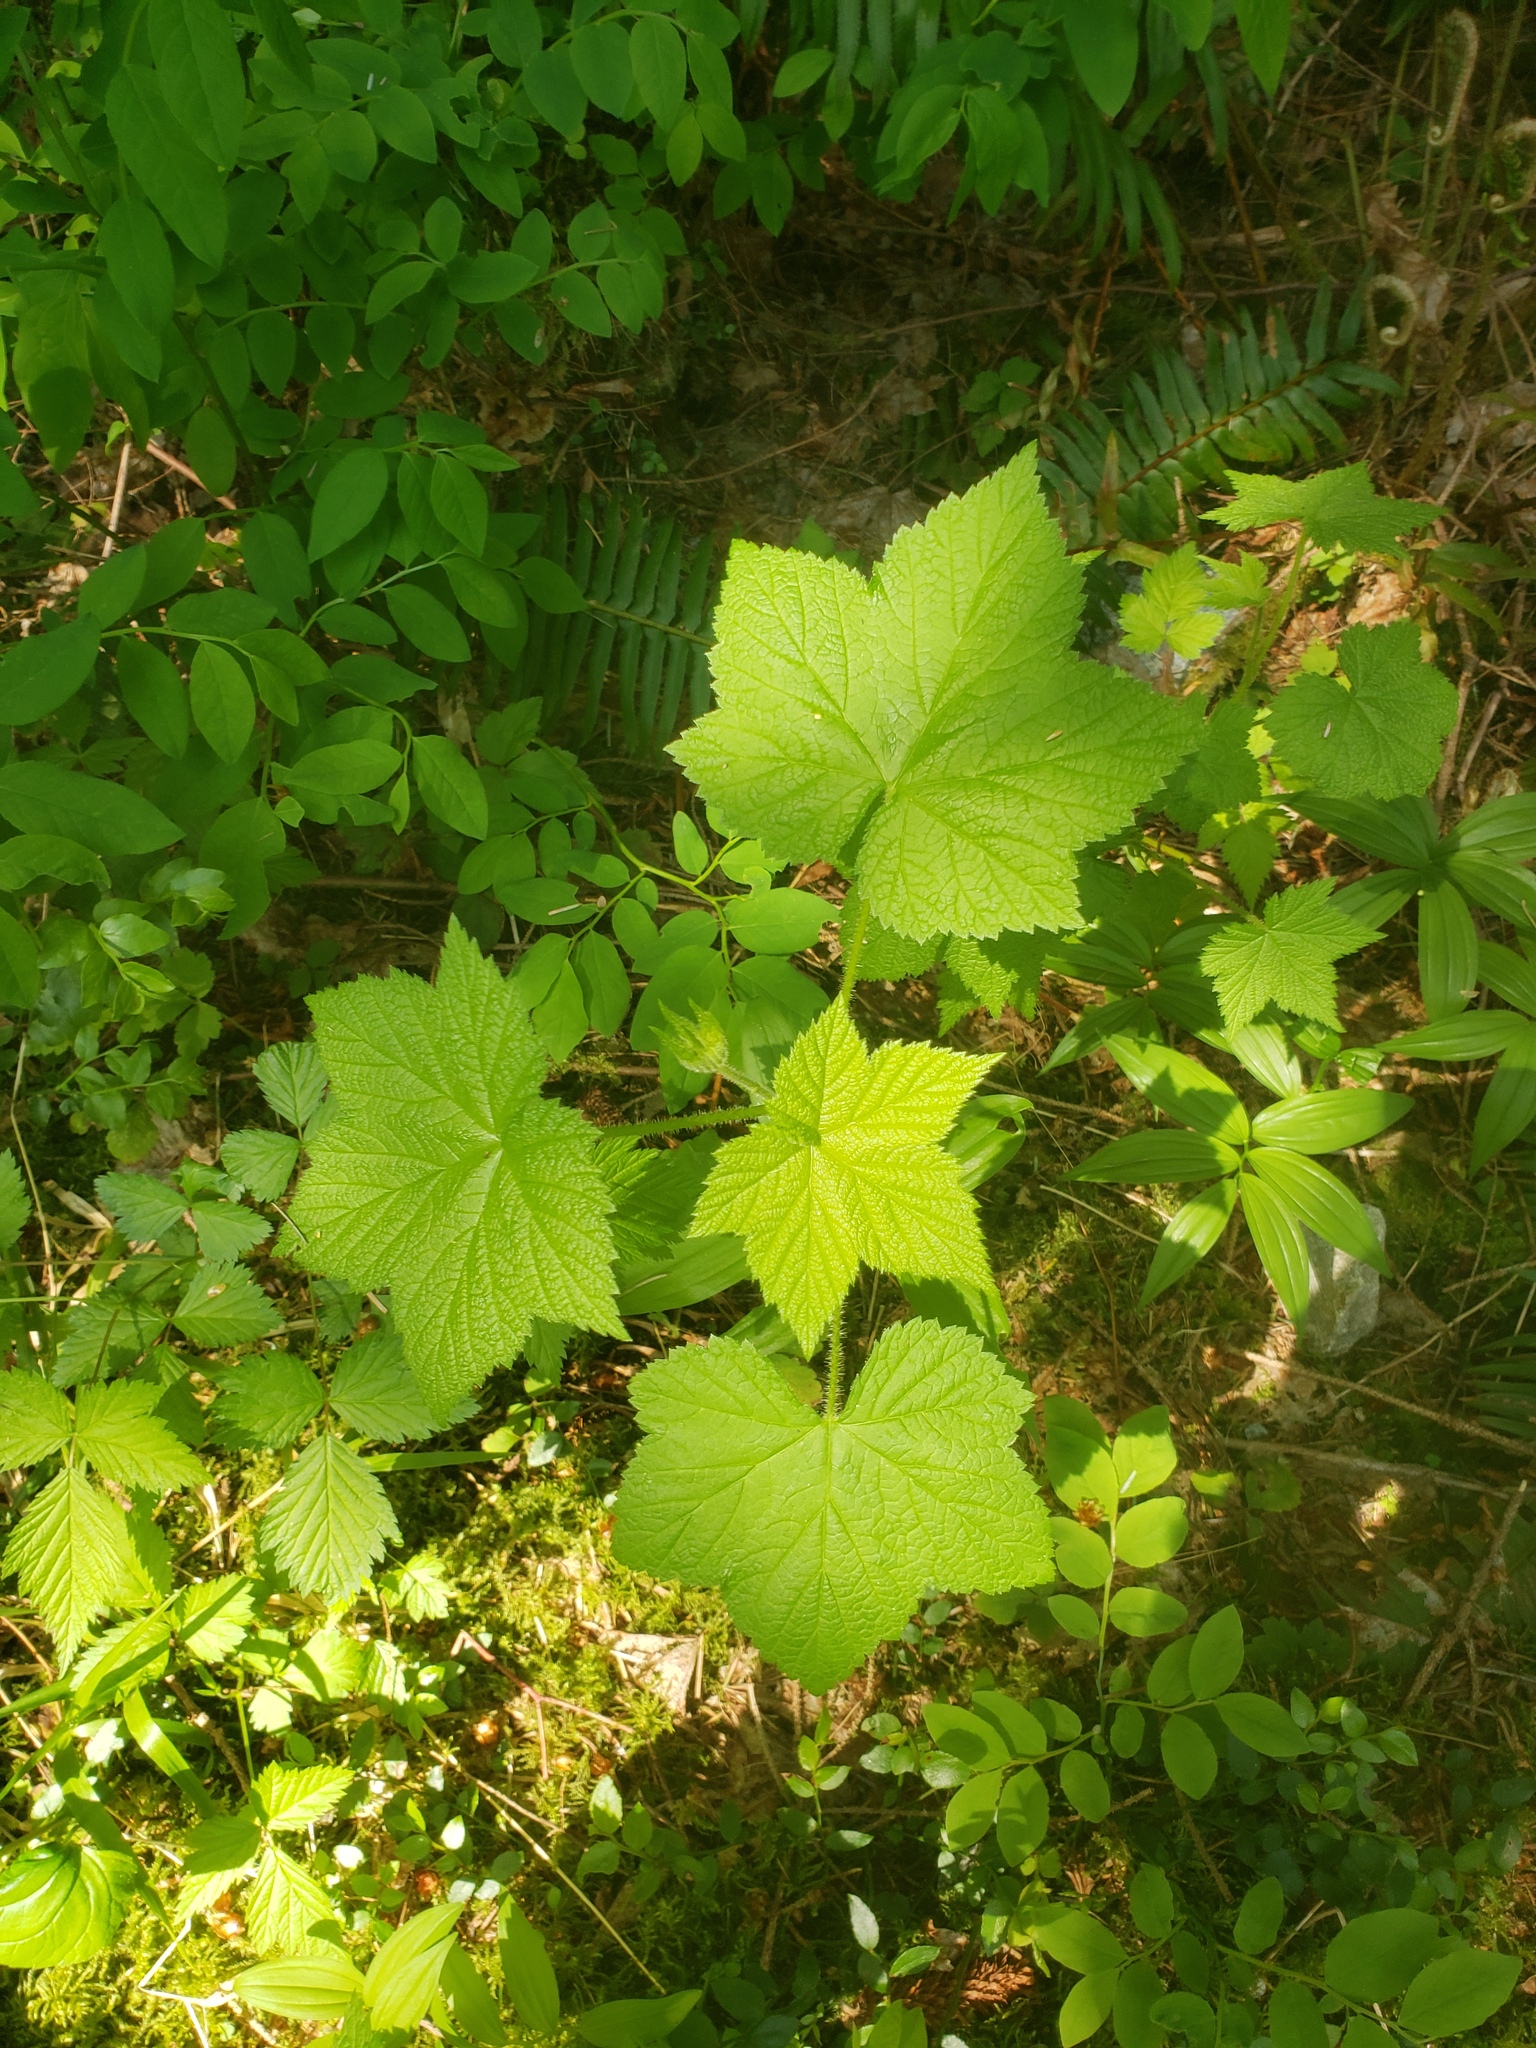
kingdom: Plantae
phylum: Tracheophyta
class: Magnoliopsida
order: Rosales
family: Rosaceae
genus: Rubus
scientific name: Rubus parviflorus
